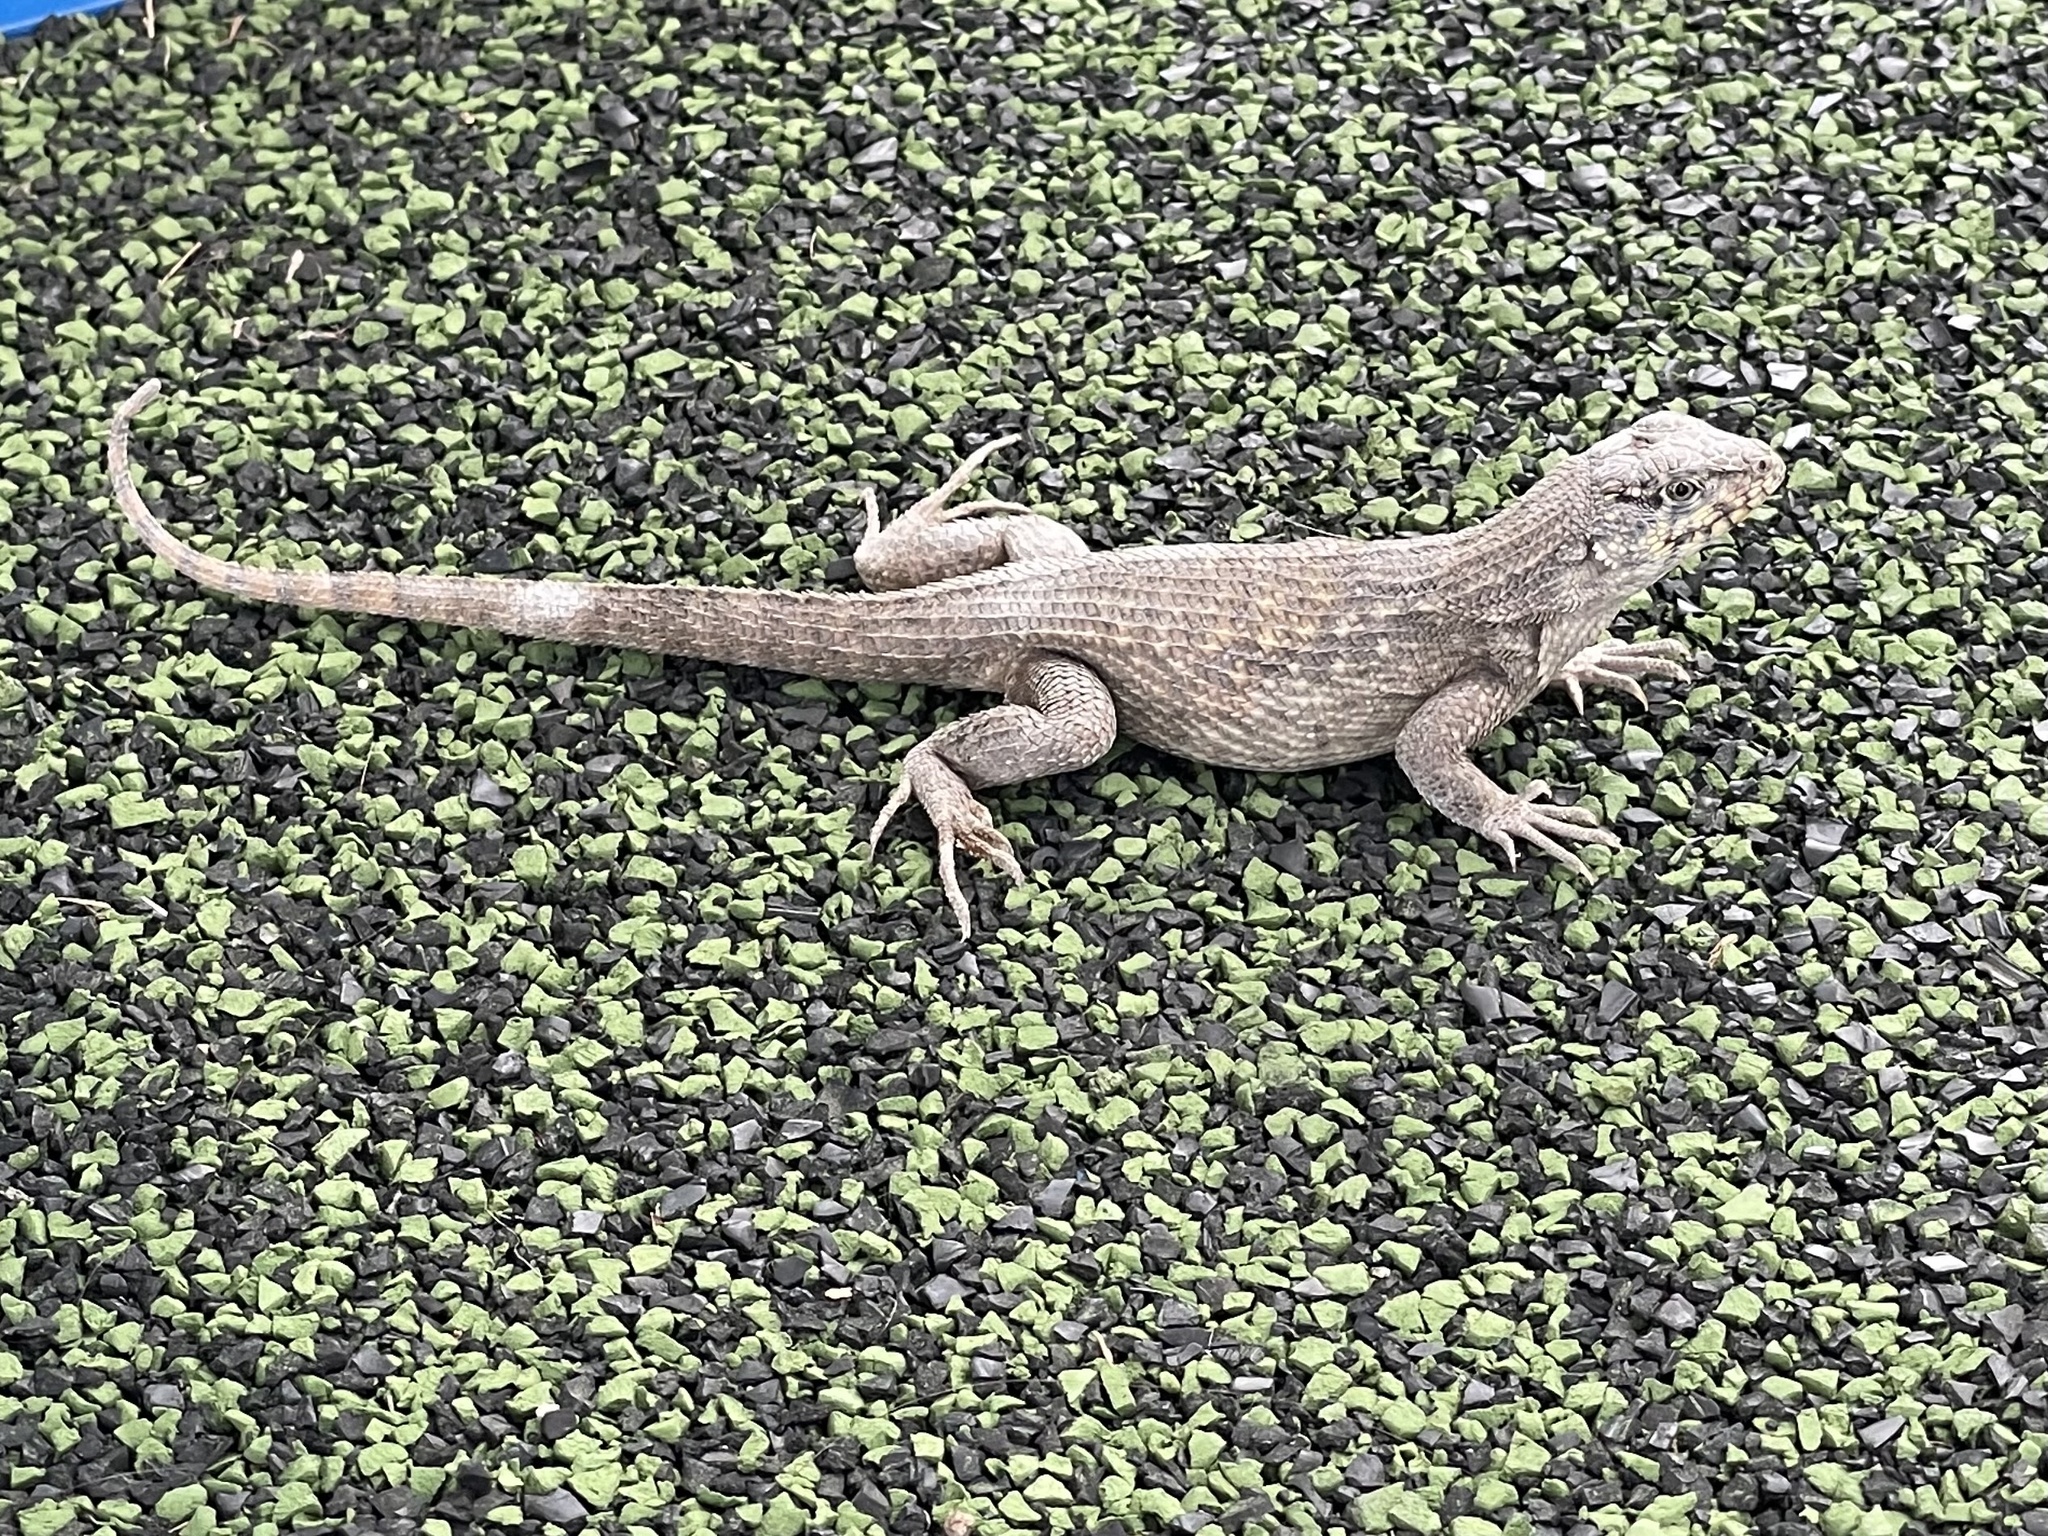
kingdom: Animalia
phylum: Chordata
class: Squamata
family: Leiocephalidae
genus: Leiocephalus
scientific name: Leiocephalus carinatus
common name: Northern curly-tailed lizard
